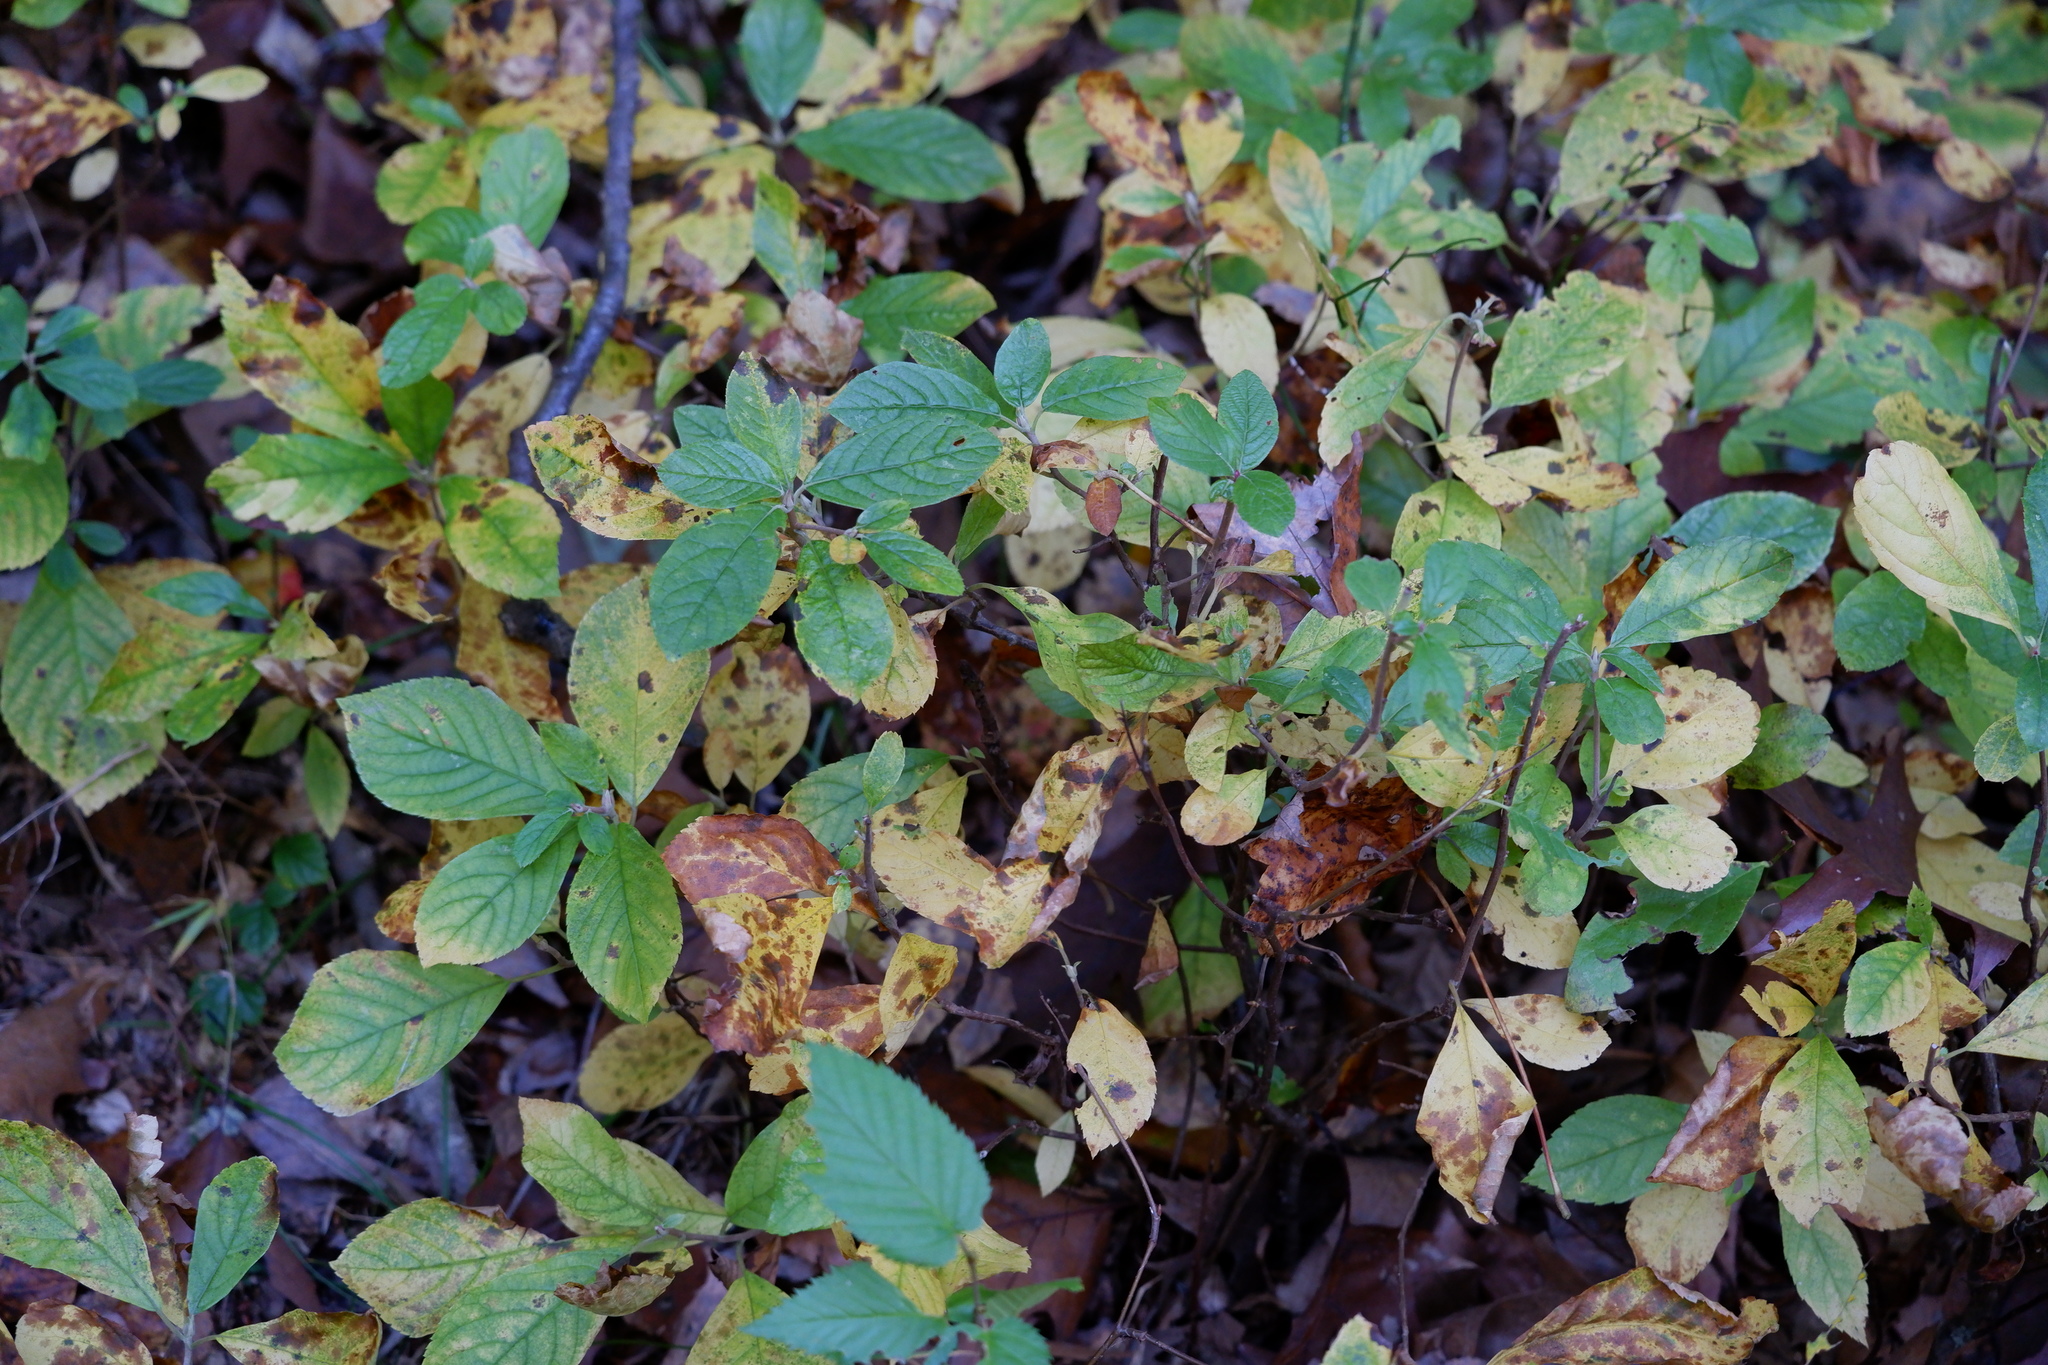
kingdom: Plantae
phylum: Tracheophyta
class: Magnoliopsida
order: Ericales
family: Clethraceae
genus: Clethra
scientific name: Clethra alnifolia
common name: Sweet pepperbush
